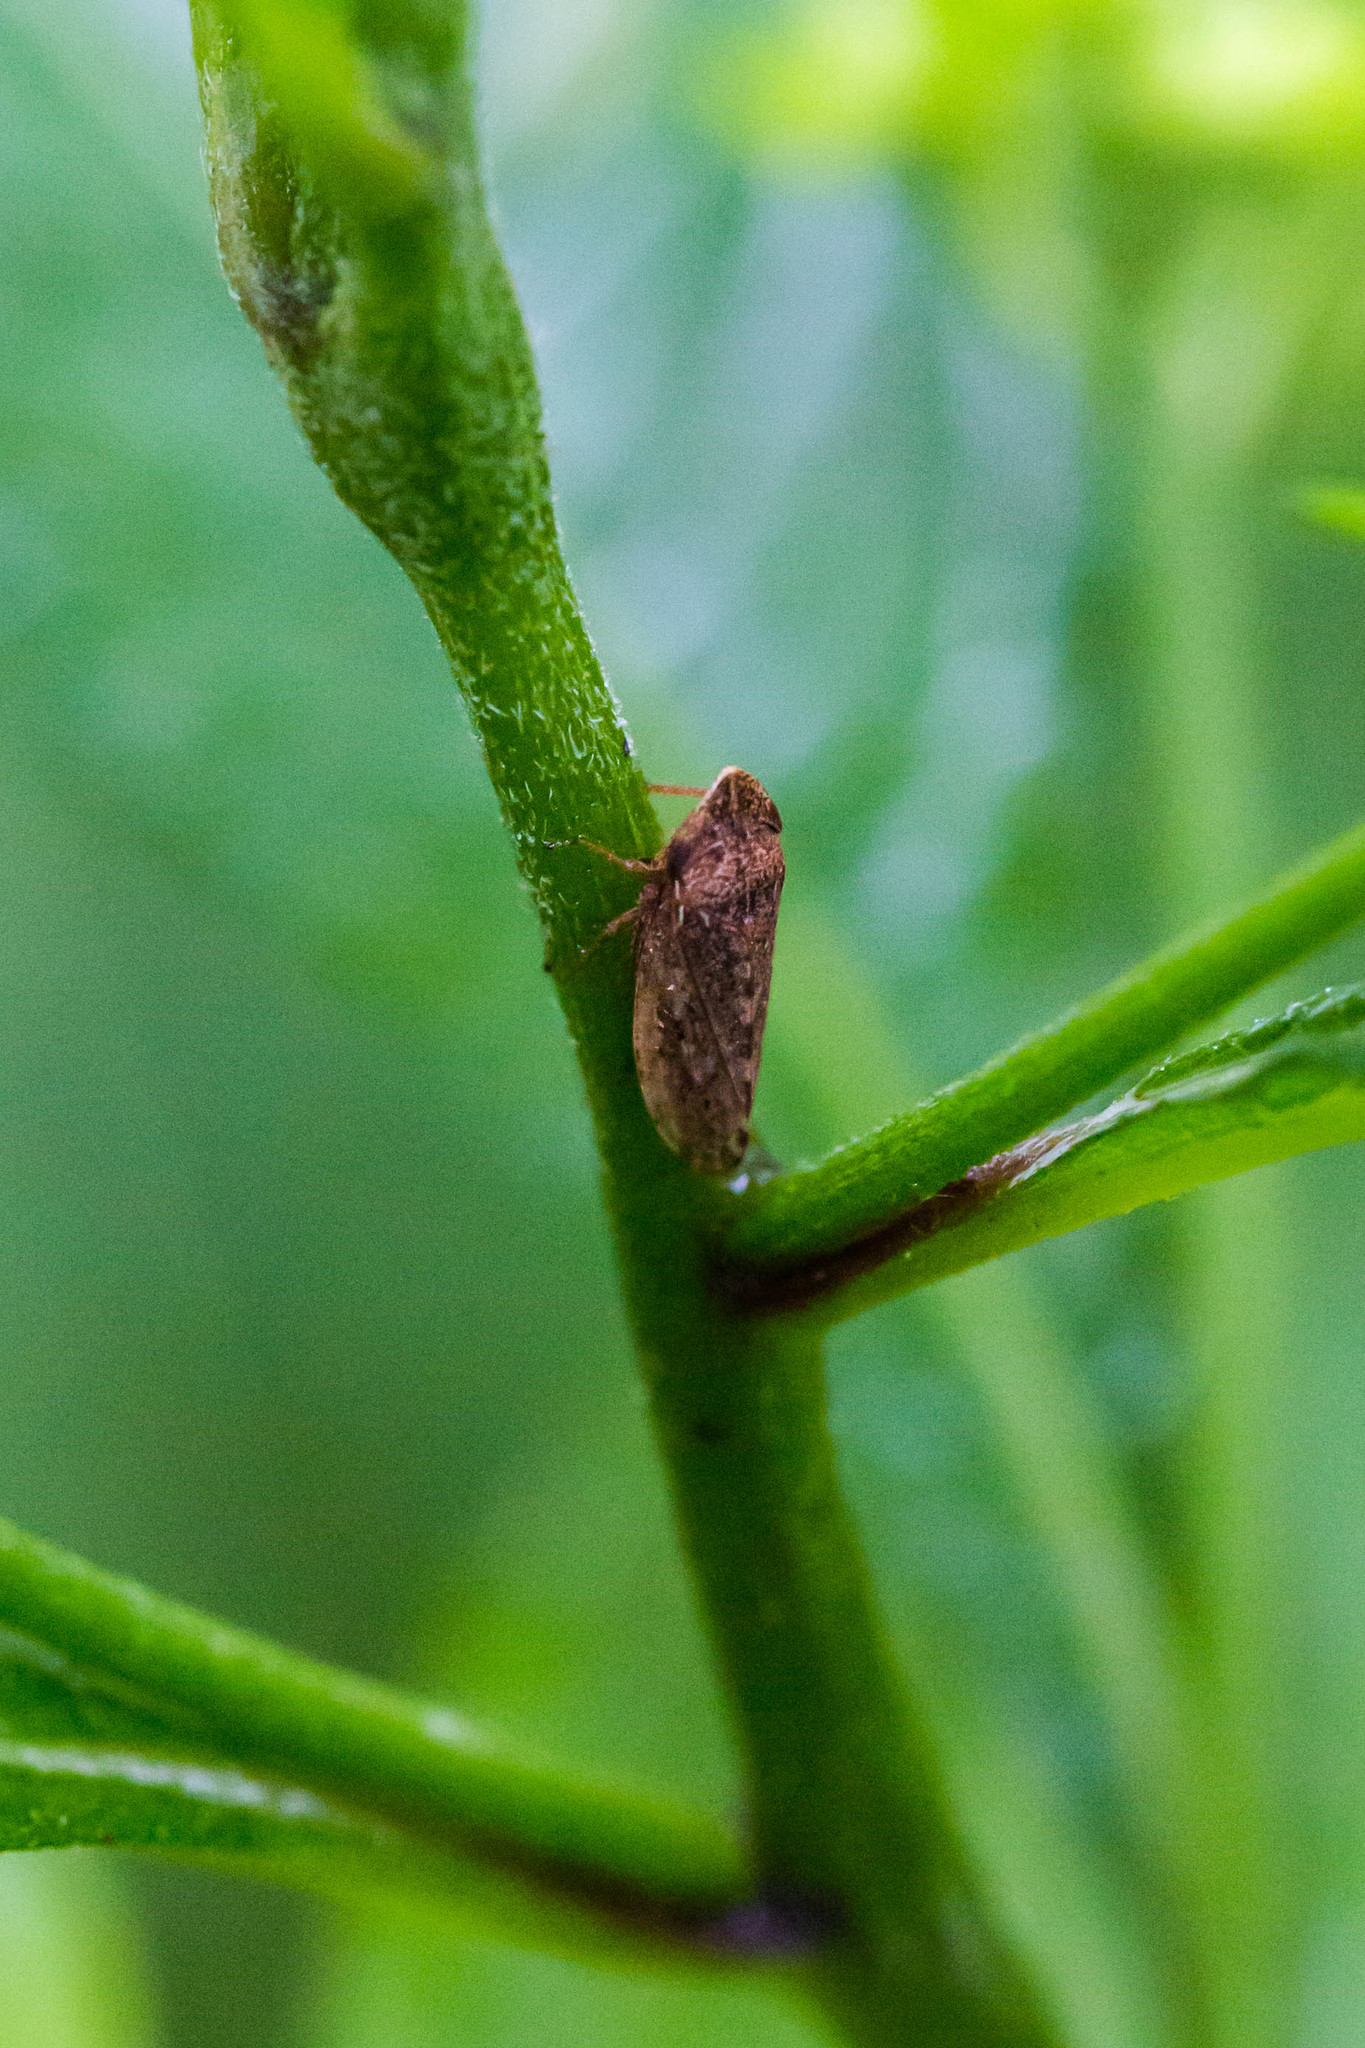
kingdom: Animalia
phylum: Arthropoda
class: Insecta
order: Hemiptera
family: Aphrophoridae
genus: Philaenus
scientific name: Philaenus spumarius
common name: Meadow spittlebug
